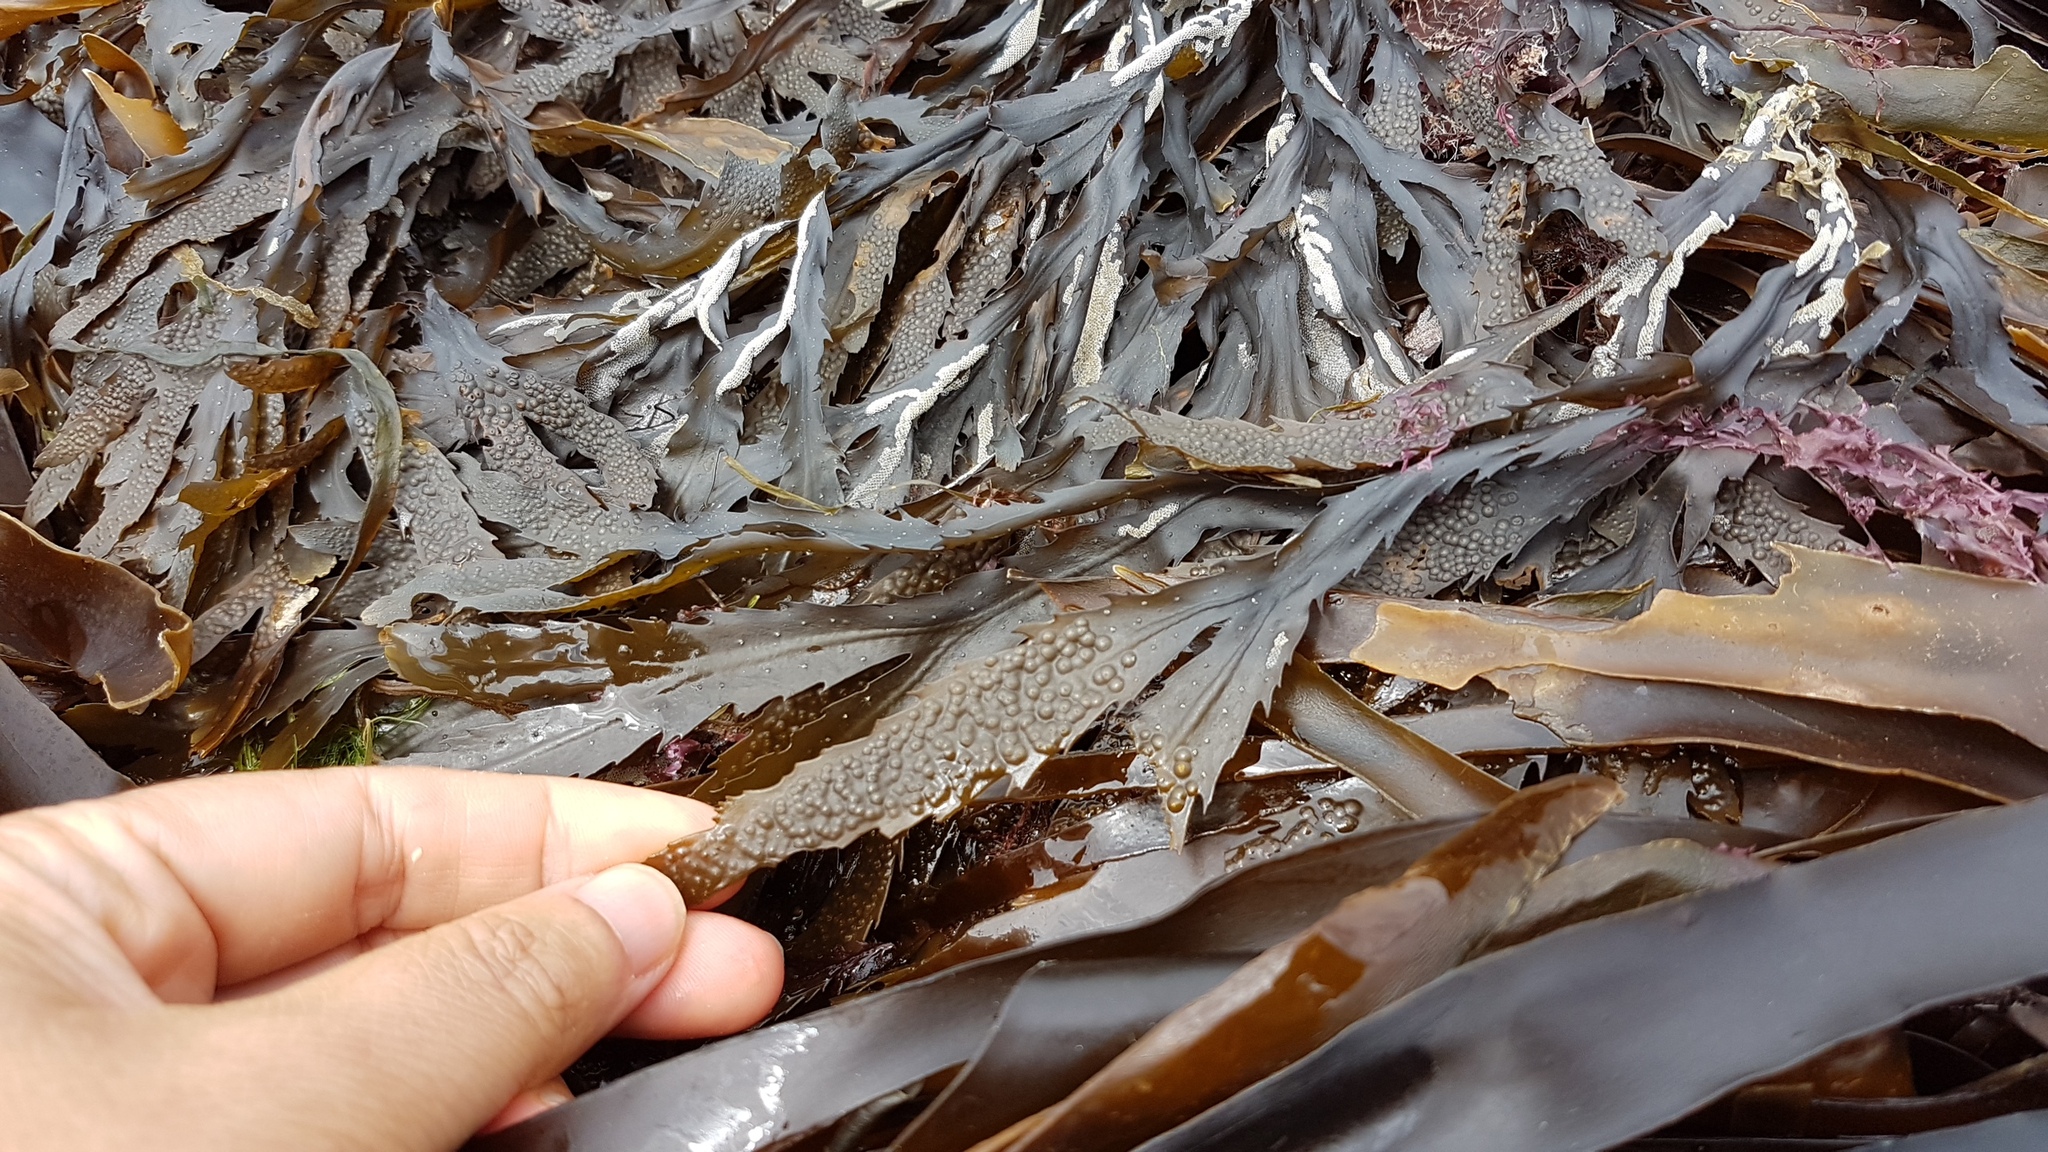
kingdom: Chromista
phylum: Ochrophyta
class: Phaeophyceae
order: Fucales
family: Fucaceae
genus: Fucus
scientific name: Fucus serratus
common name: Toothed wrack
